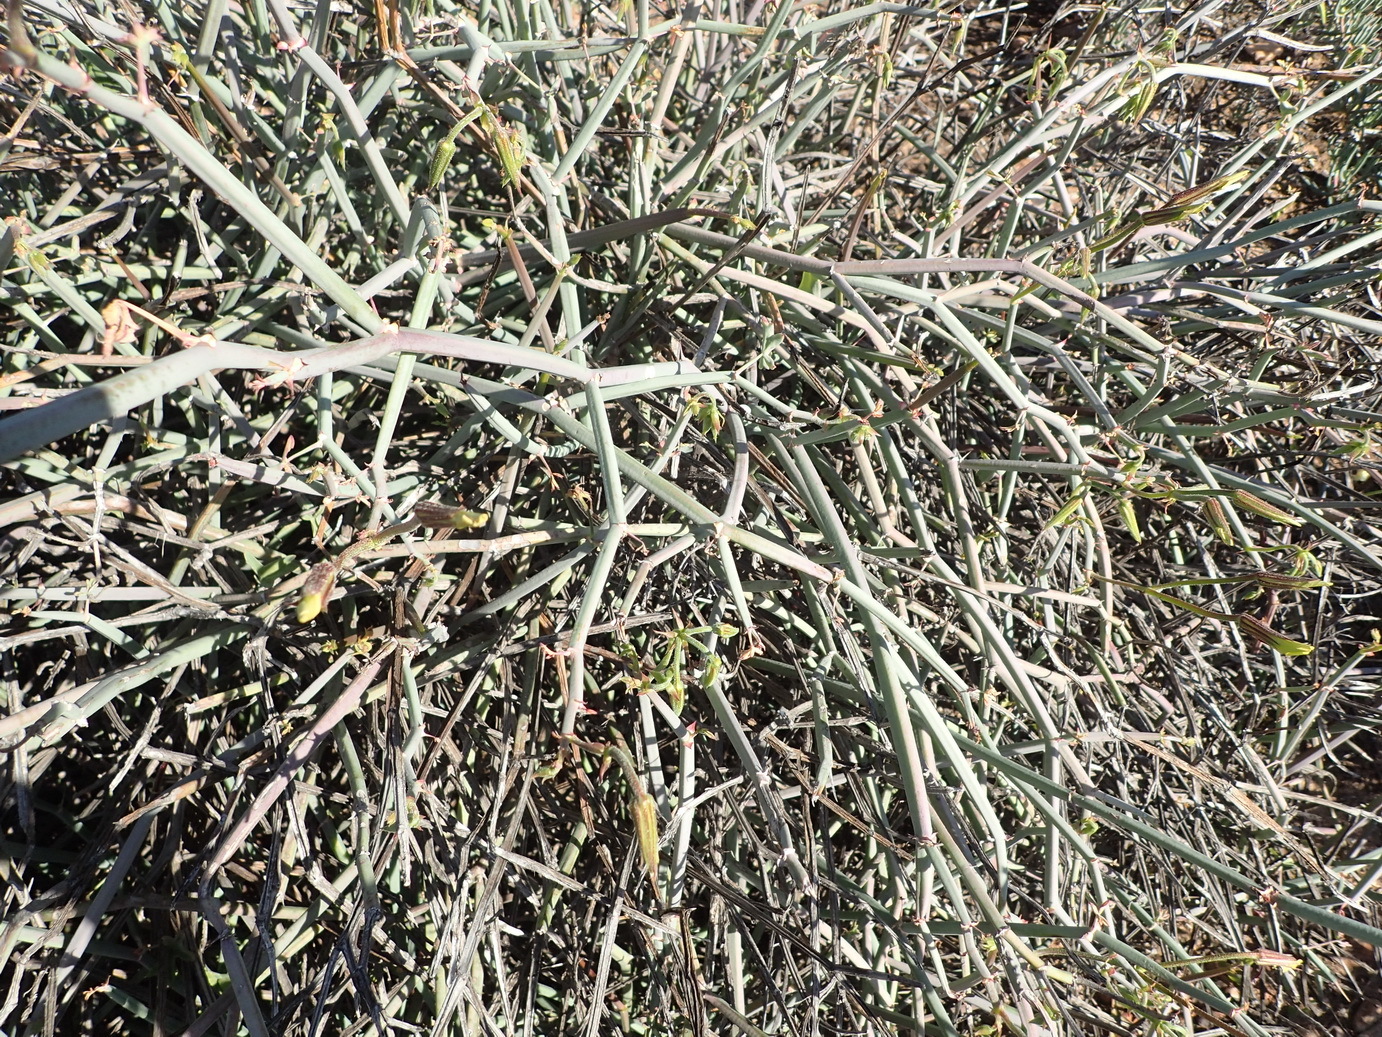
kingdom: Plantae
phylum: Tracheophyta
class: Magnoliopsida
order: Geraniales
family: Geraniaceae
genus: Pelargonium
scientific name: Pelargonium tetragonum
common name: Square-stack crane's-bill
